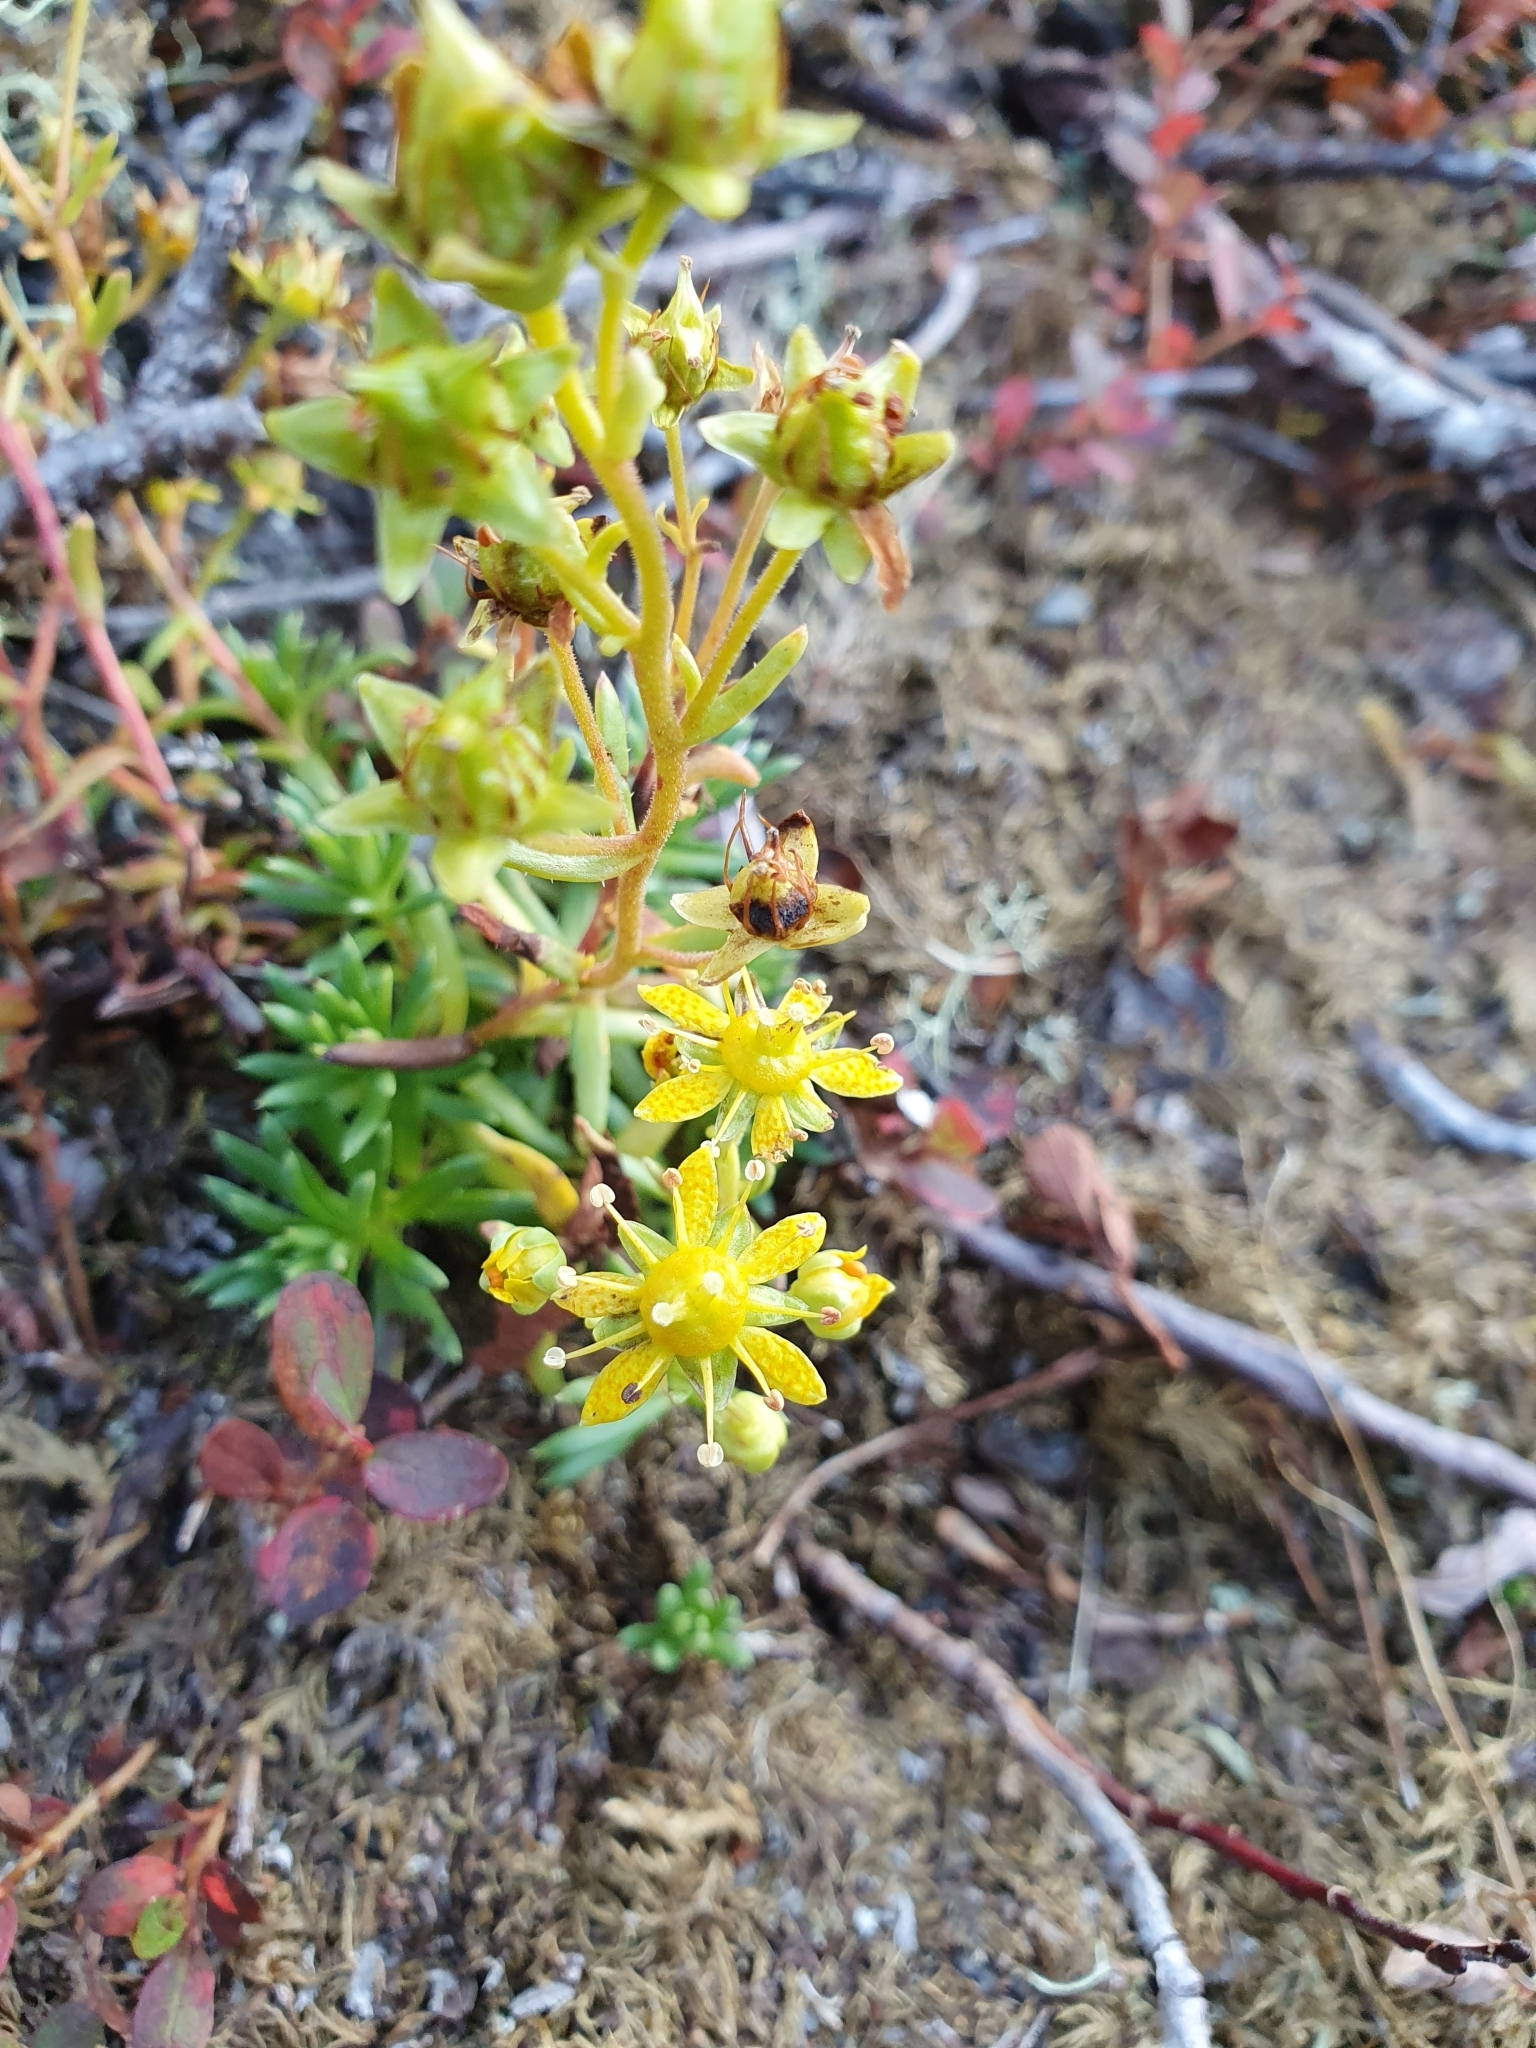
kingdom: Plantae
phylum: Tracheophyta
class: Magnoliopsida
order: Saxifragales
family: Saxifragaceae
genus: Saxifraga
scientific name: Saxifraga aizoides
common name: Yellow mountain saxifrage
